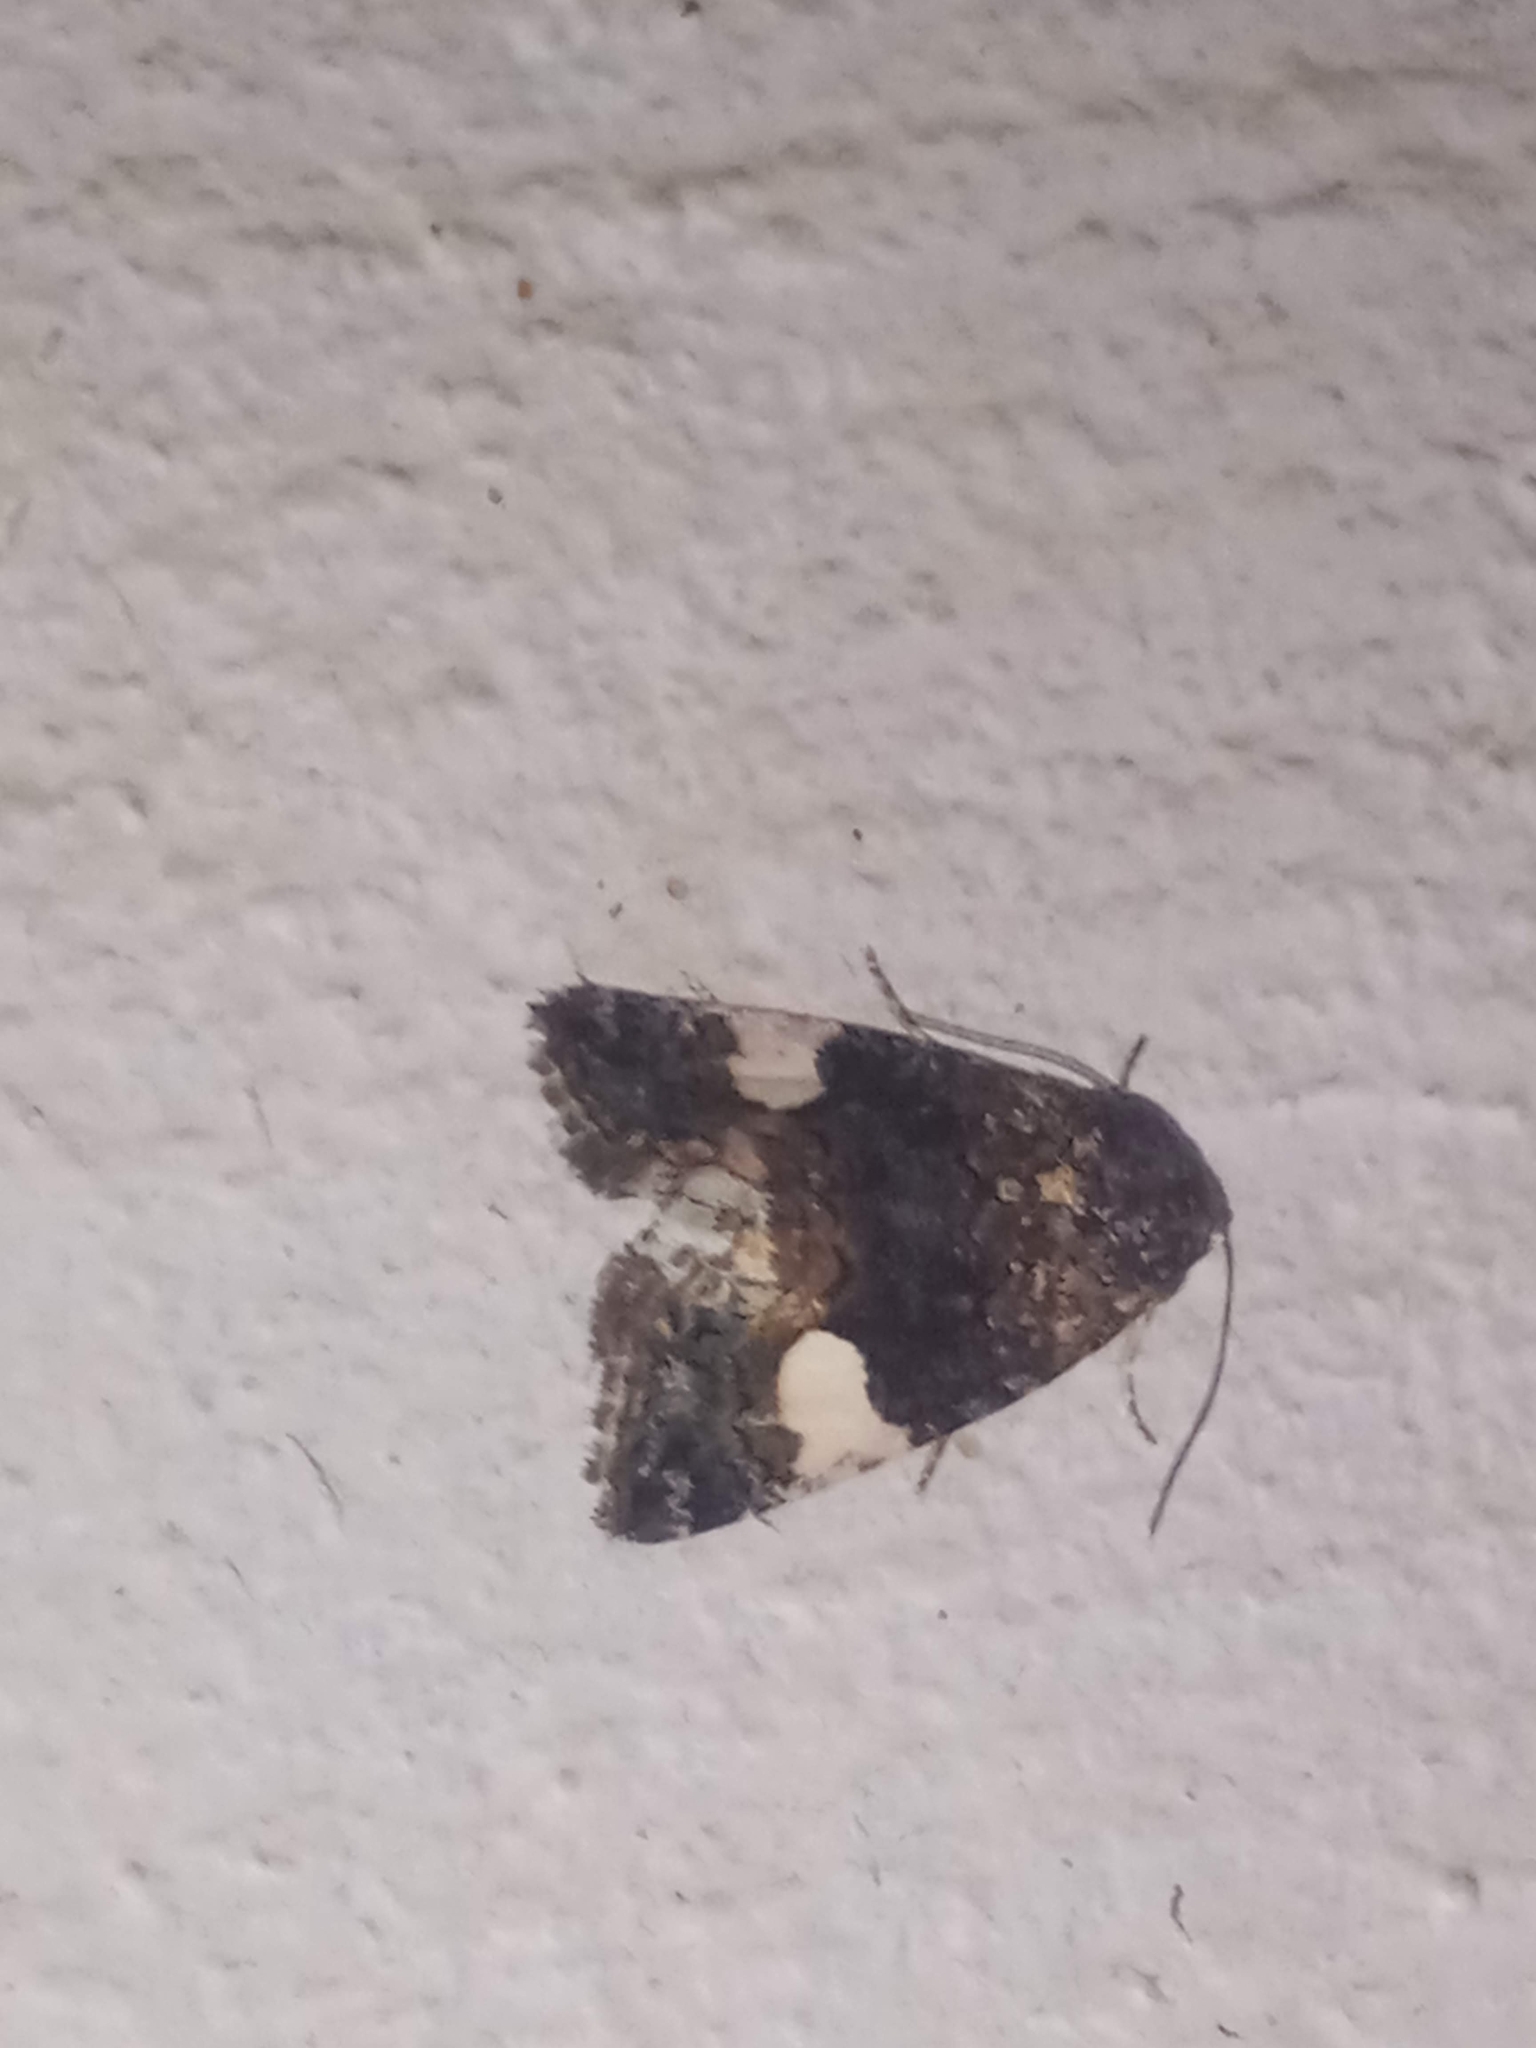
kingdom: Animalia
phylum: Arthropoda
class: Insecta
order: Lepidoptera
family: Erebidae
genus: Tyta
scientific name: Tyta luctuosa
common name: Four-spotted
